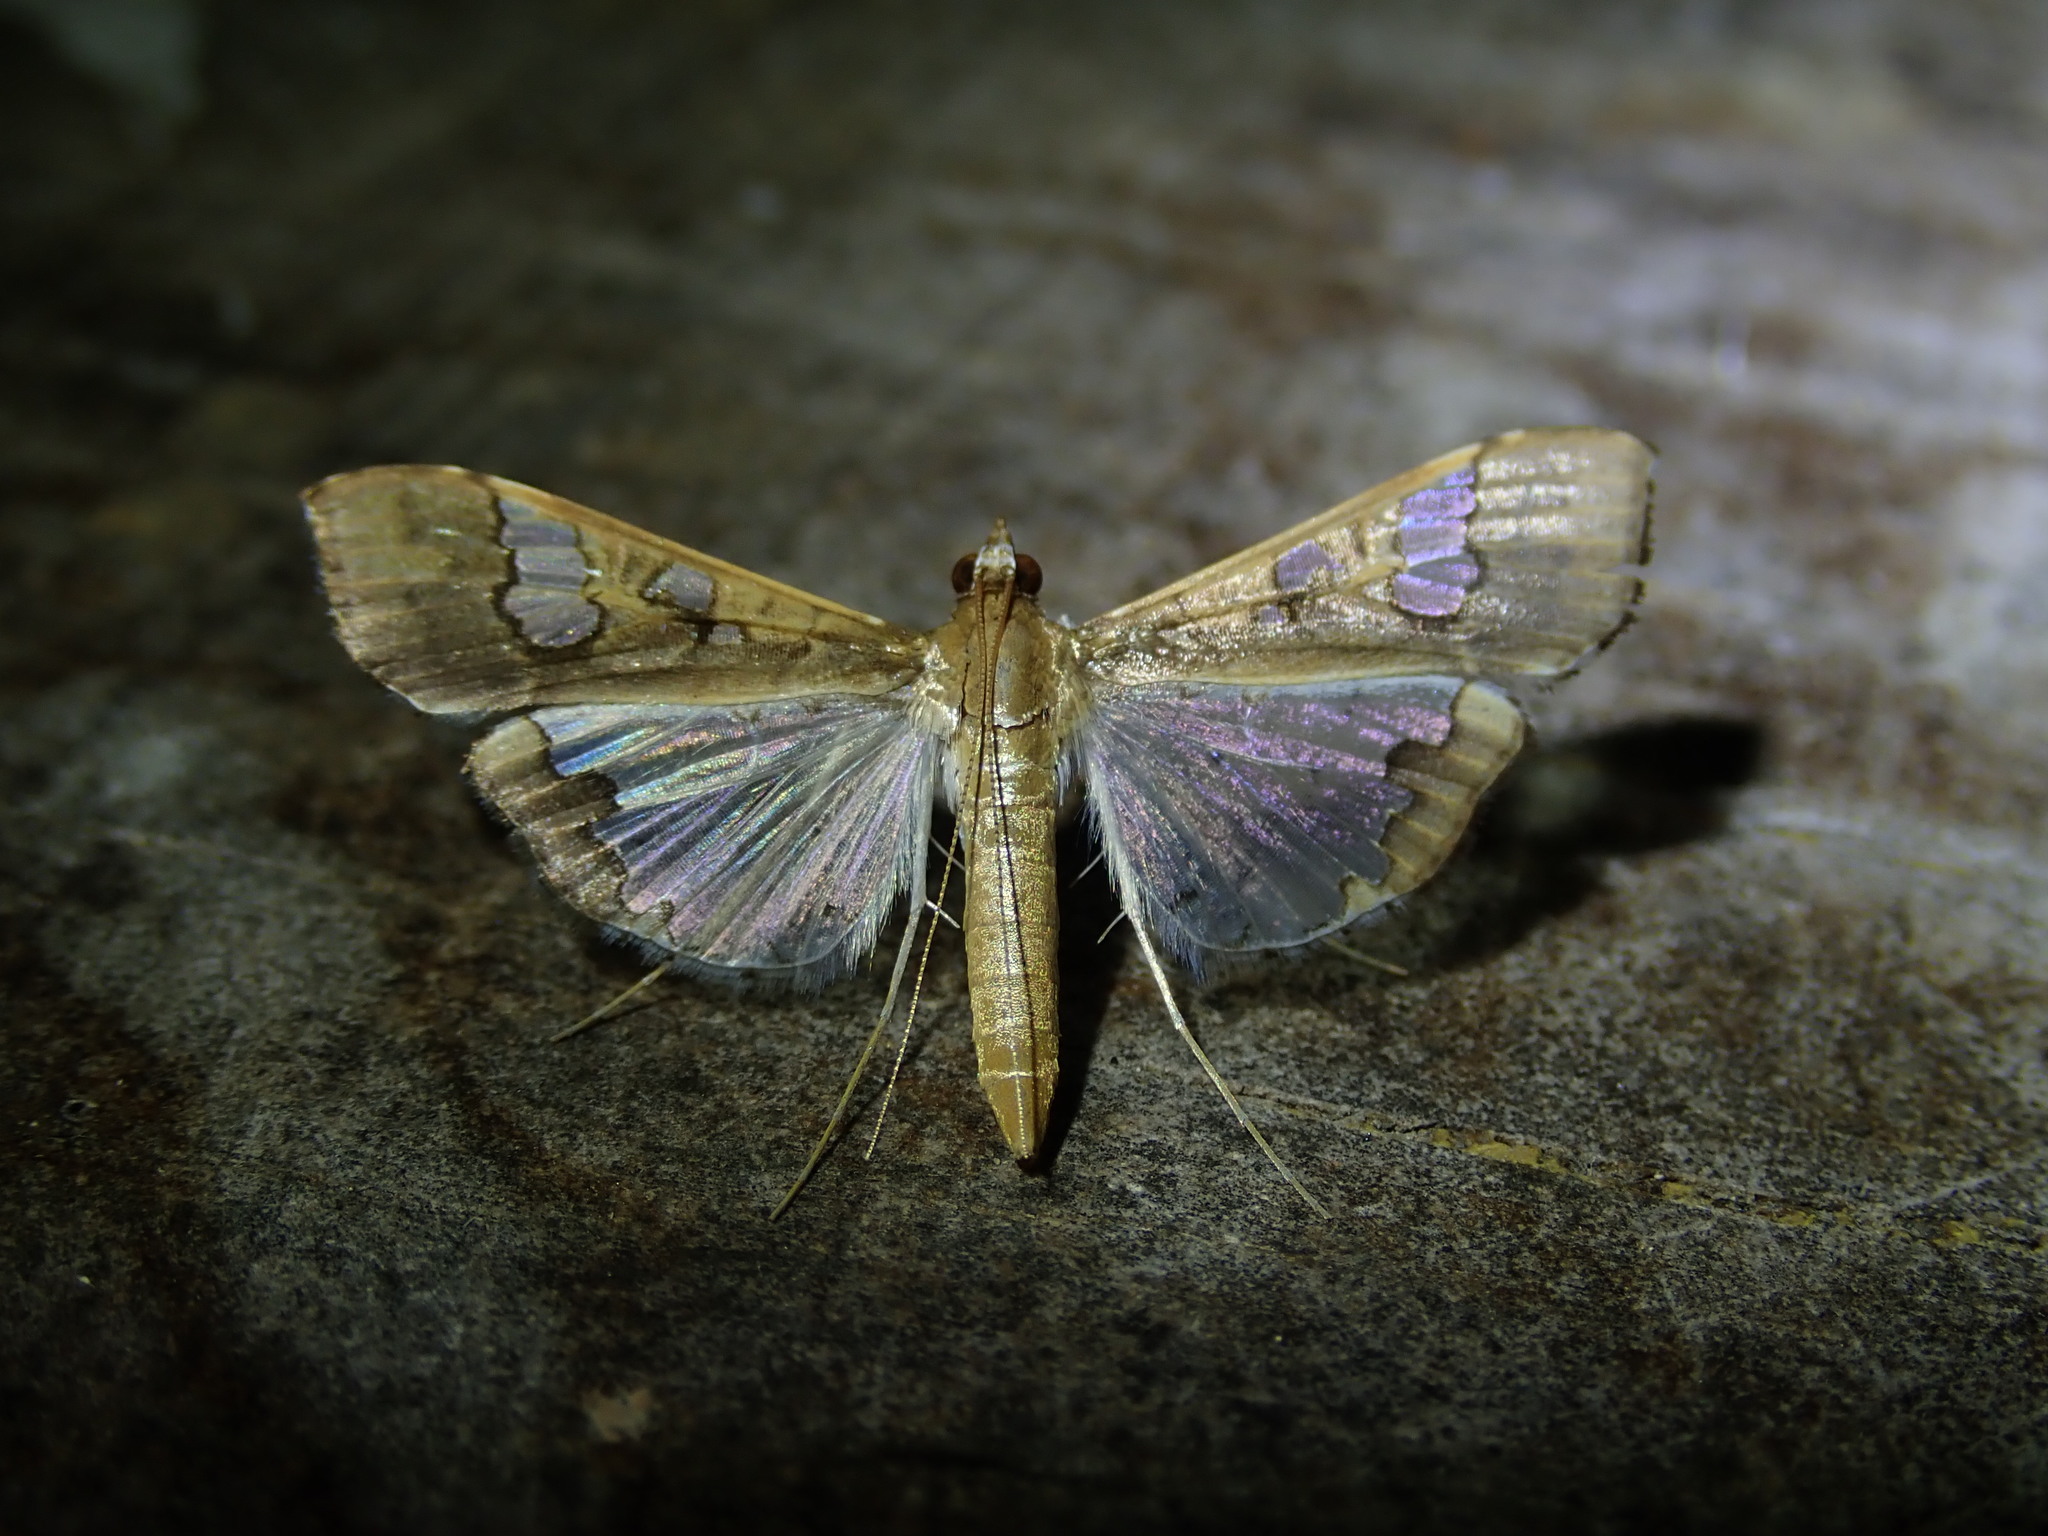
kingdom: Animalia
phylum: Arthropoda
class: Insecta
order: Lepidoptera
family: Crambidae
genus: Maruca
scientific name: Maruca vitrata
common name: Maruca pod borer
